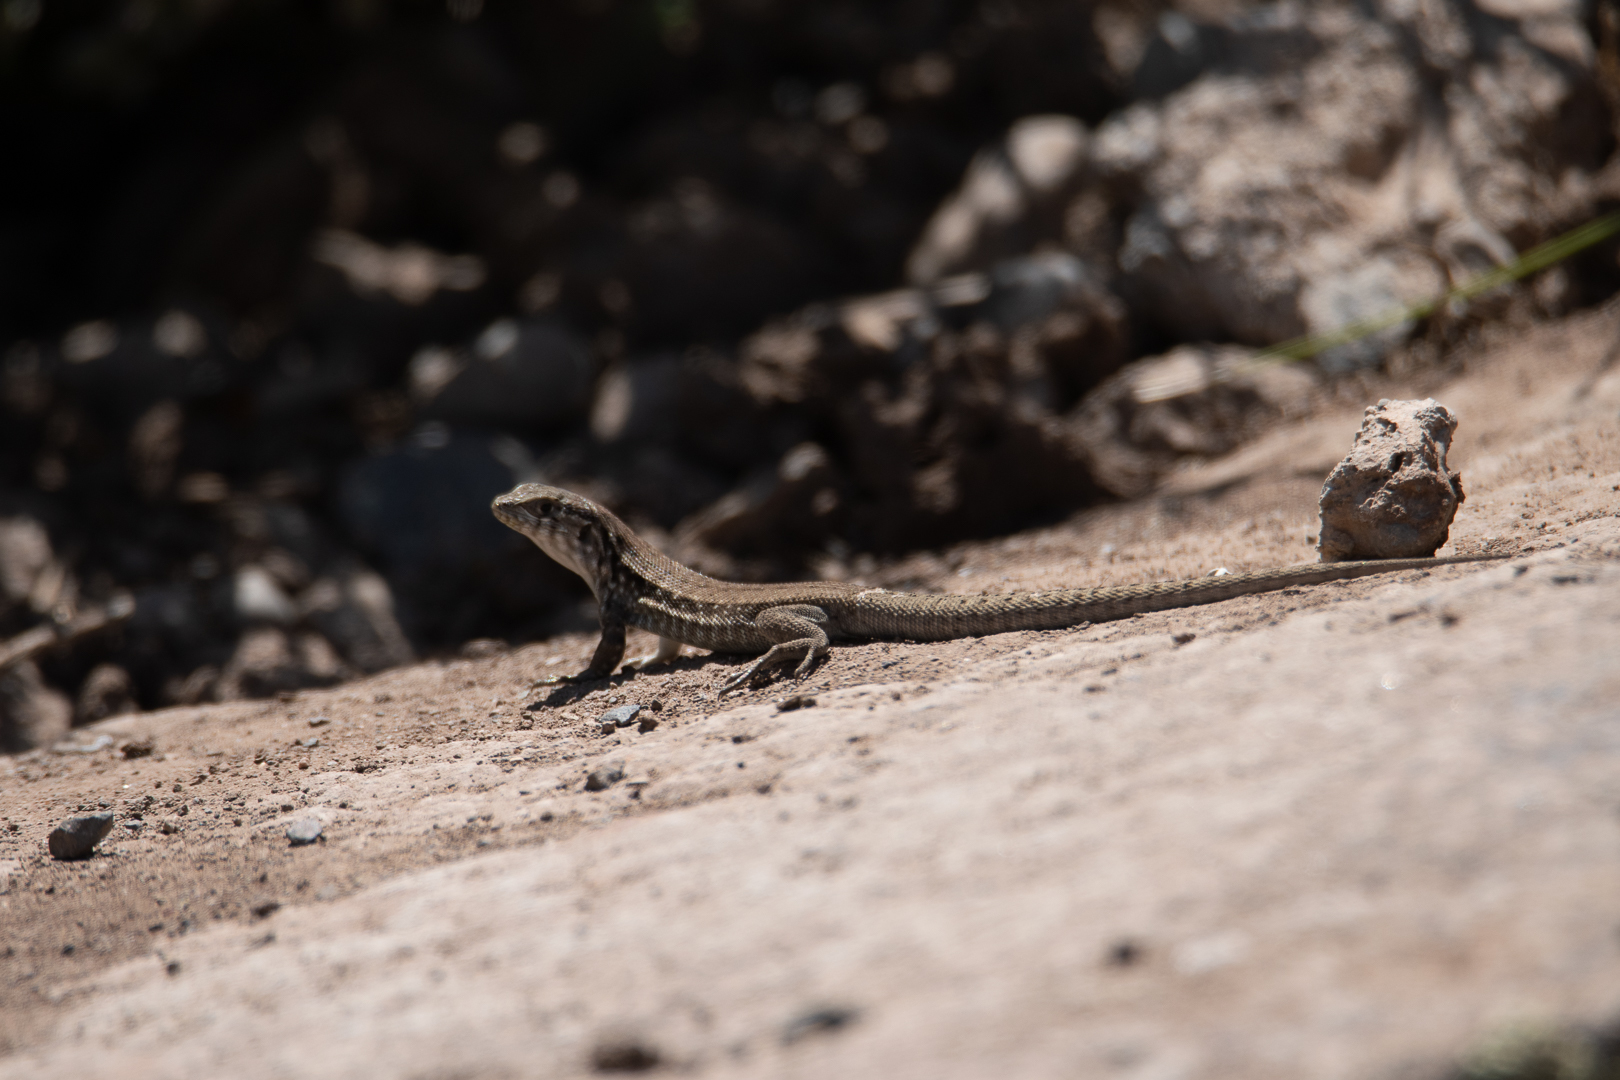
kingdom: Animalia
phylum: Chordata
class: Squamata
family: Liolaemidae
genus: Liolaemus
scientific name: Liolaemus nigroviridis
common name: Black-green tree iguana
